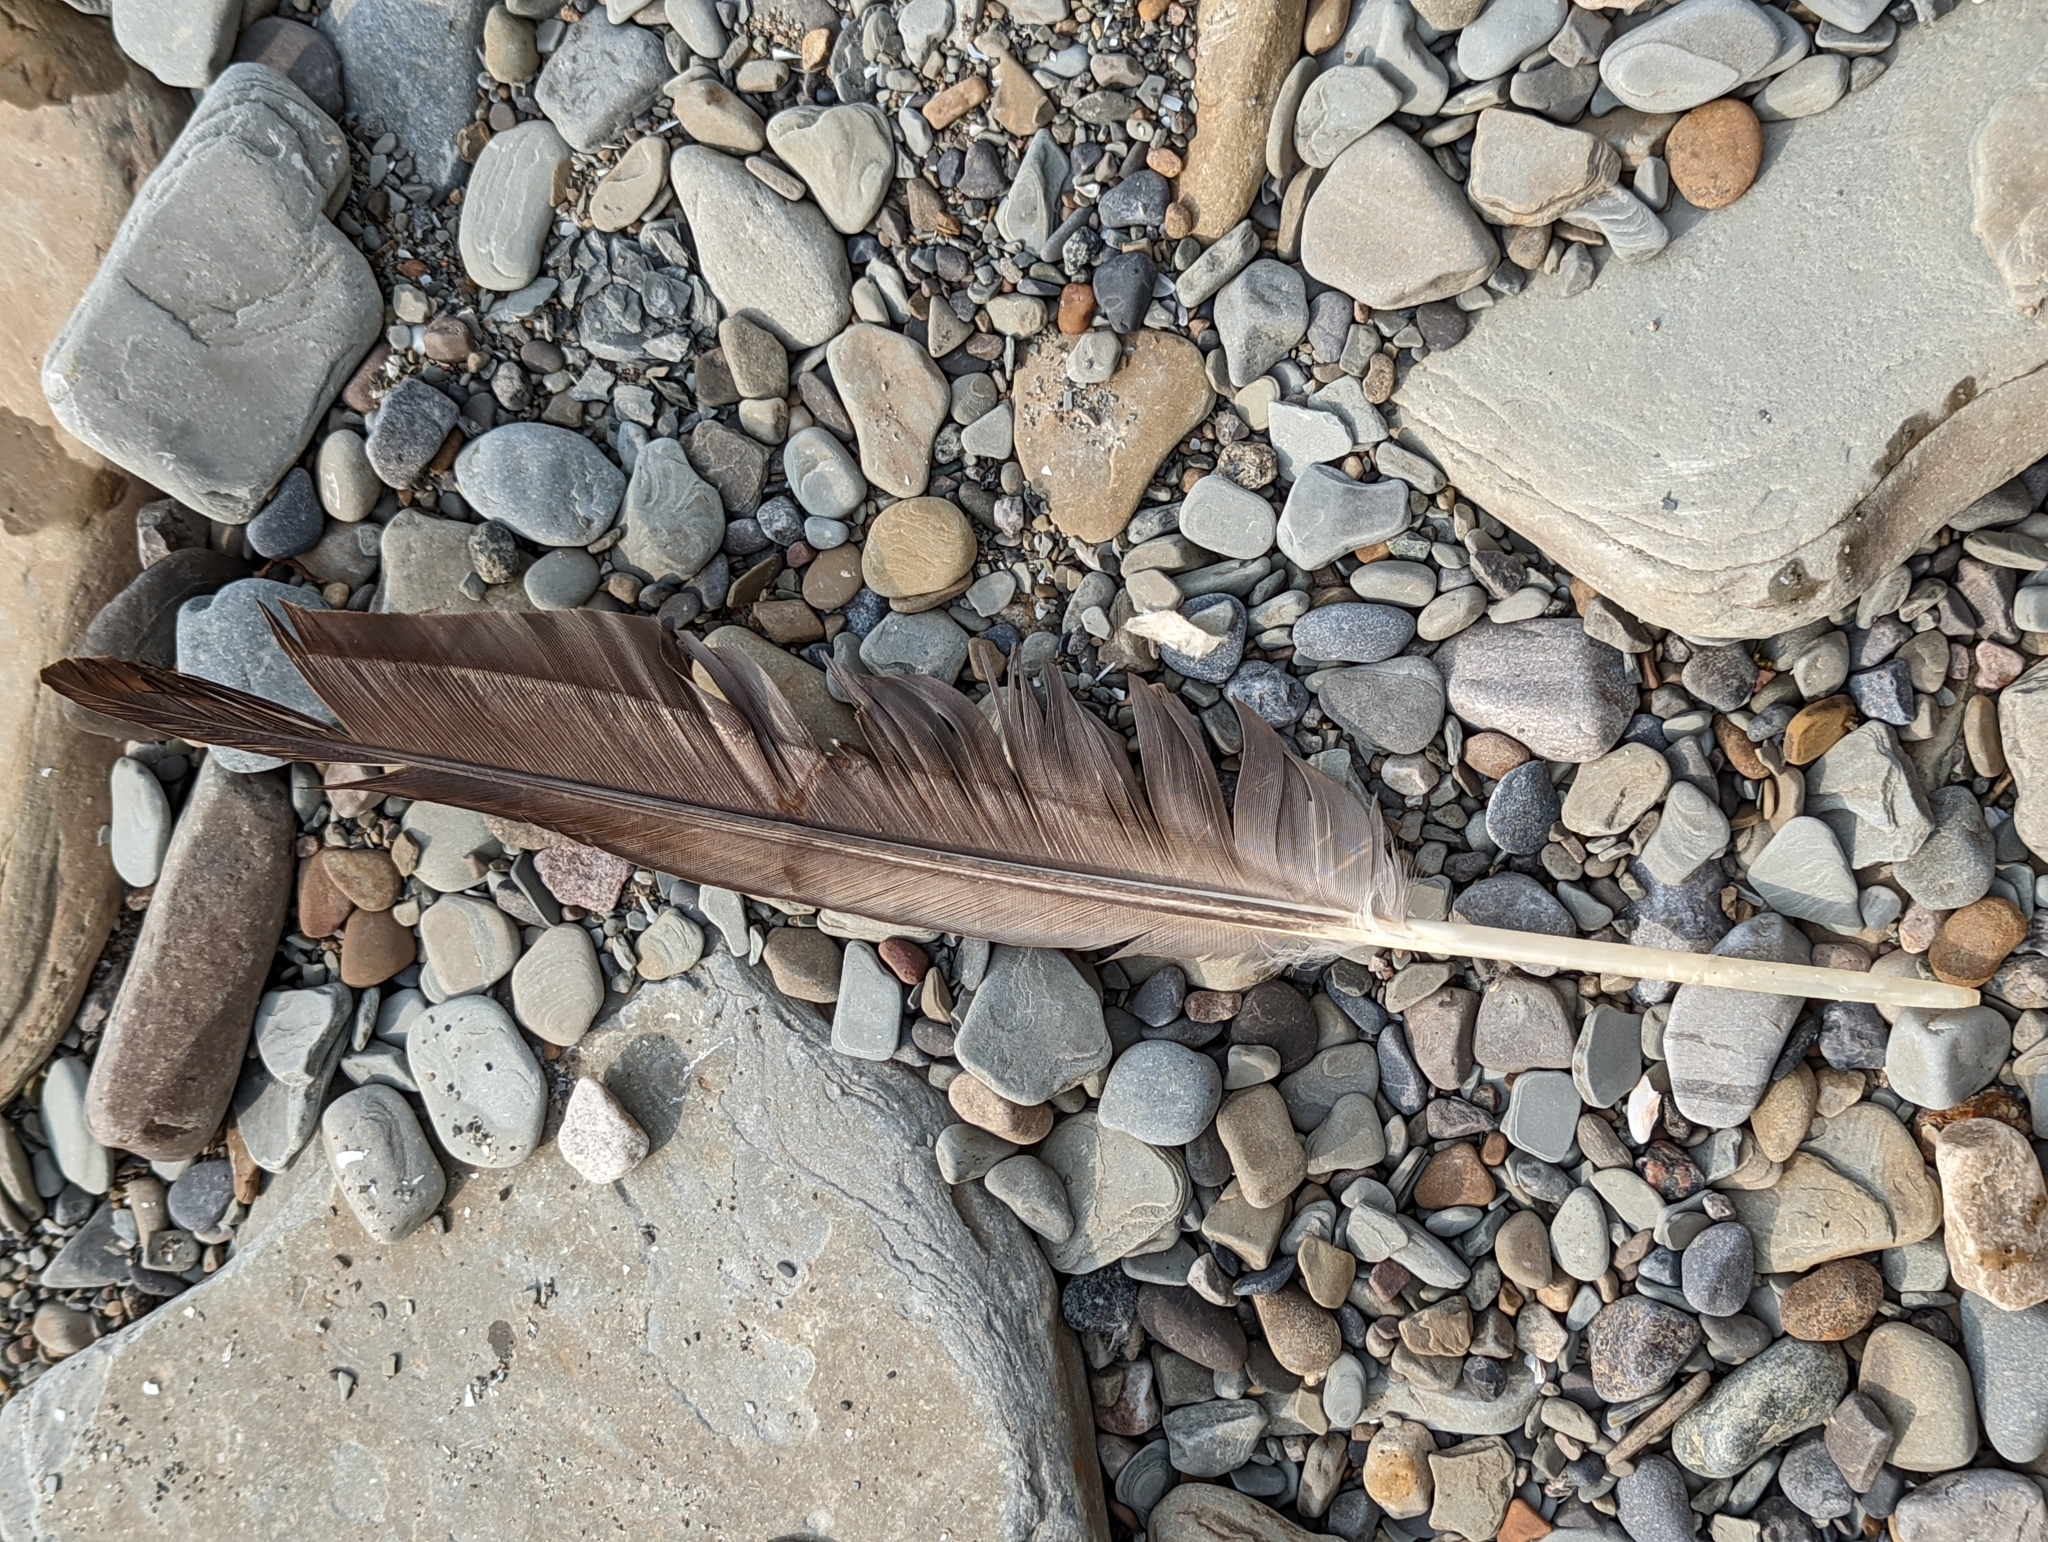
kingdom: Animalia
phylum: Chordata
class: Aves
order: Anseriformes
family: Anatidae
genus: Branta
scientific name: Branta canadensis
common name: Canada goose
